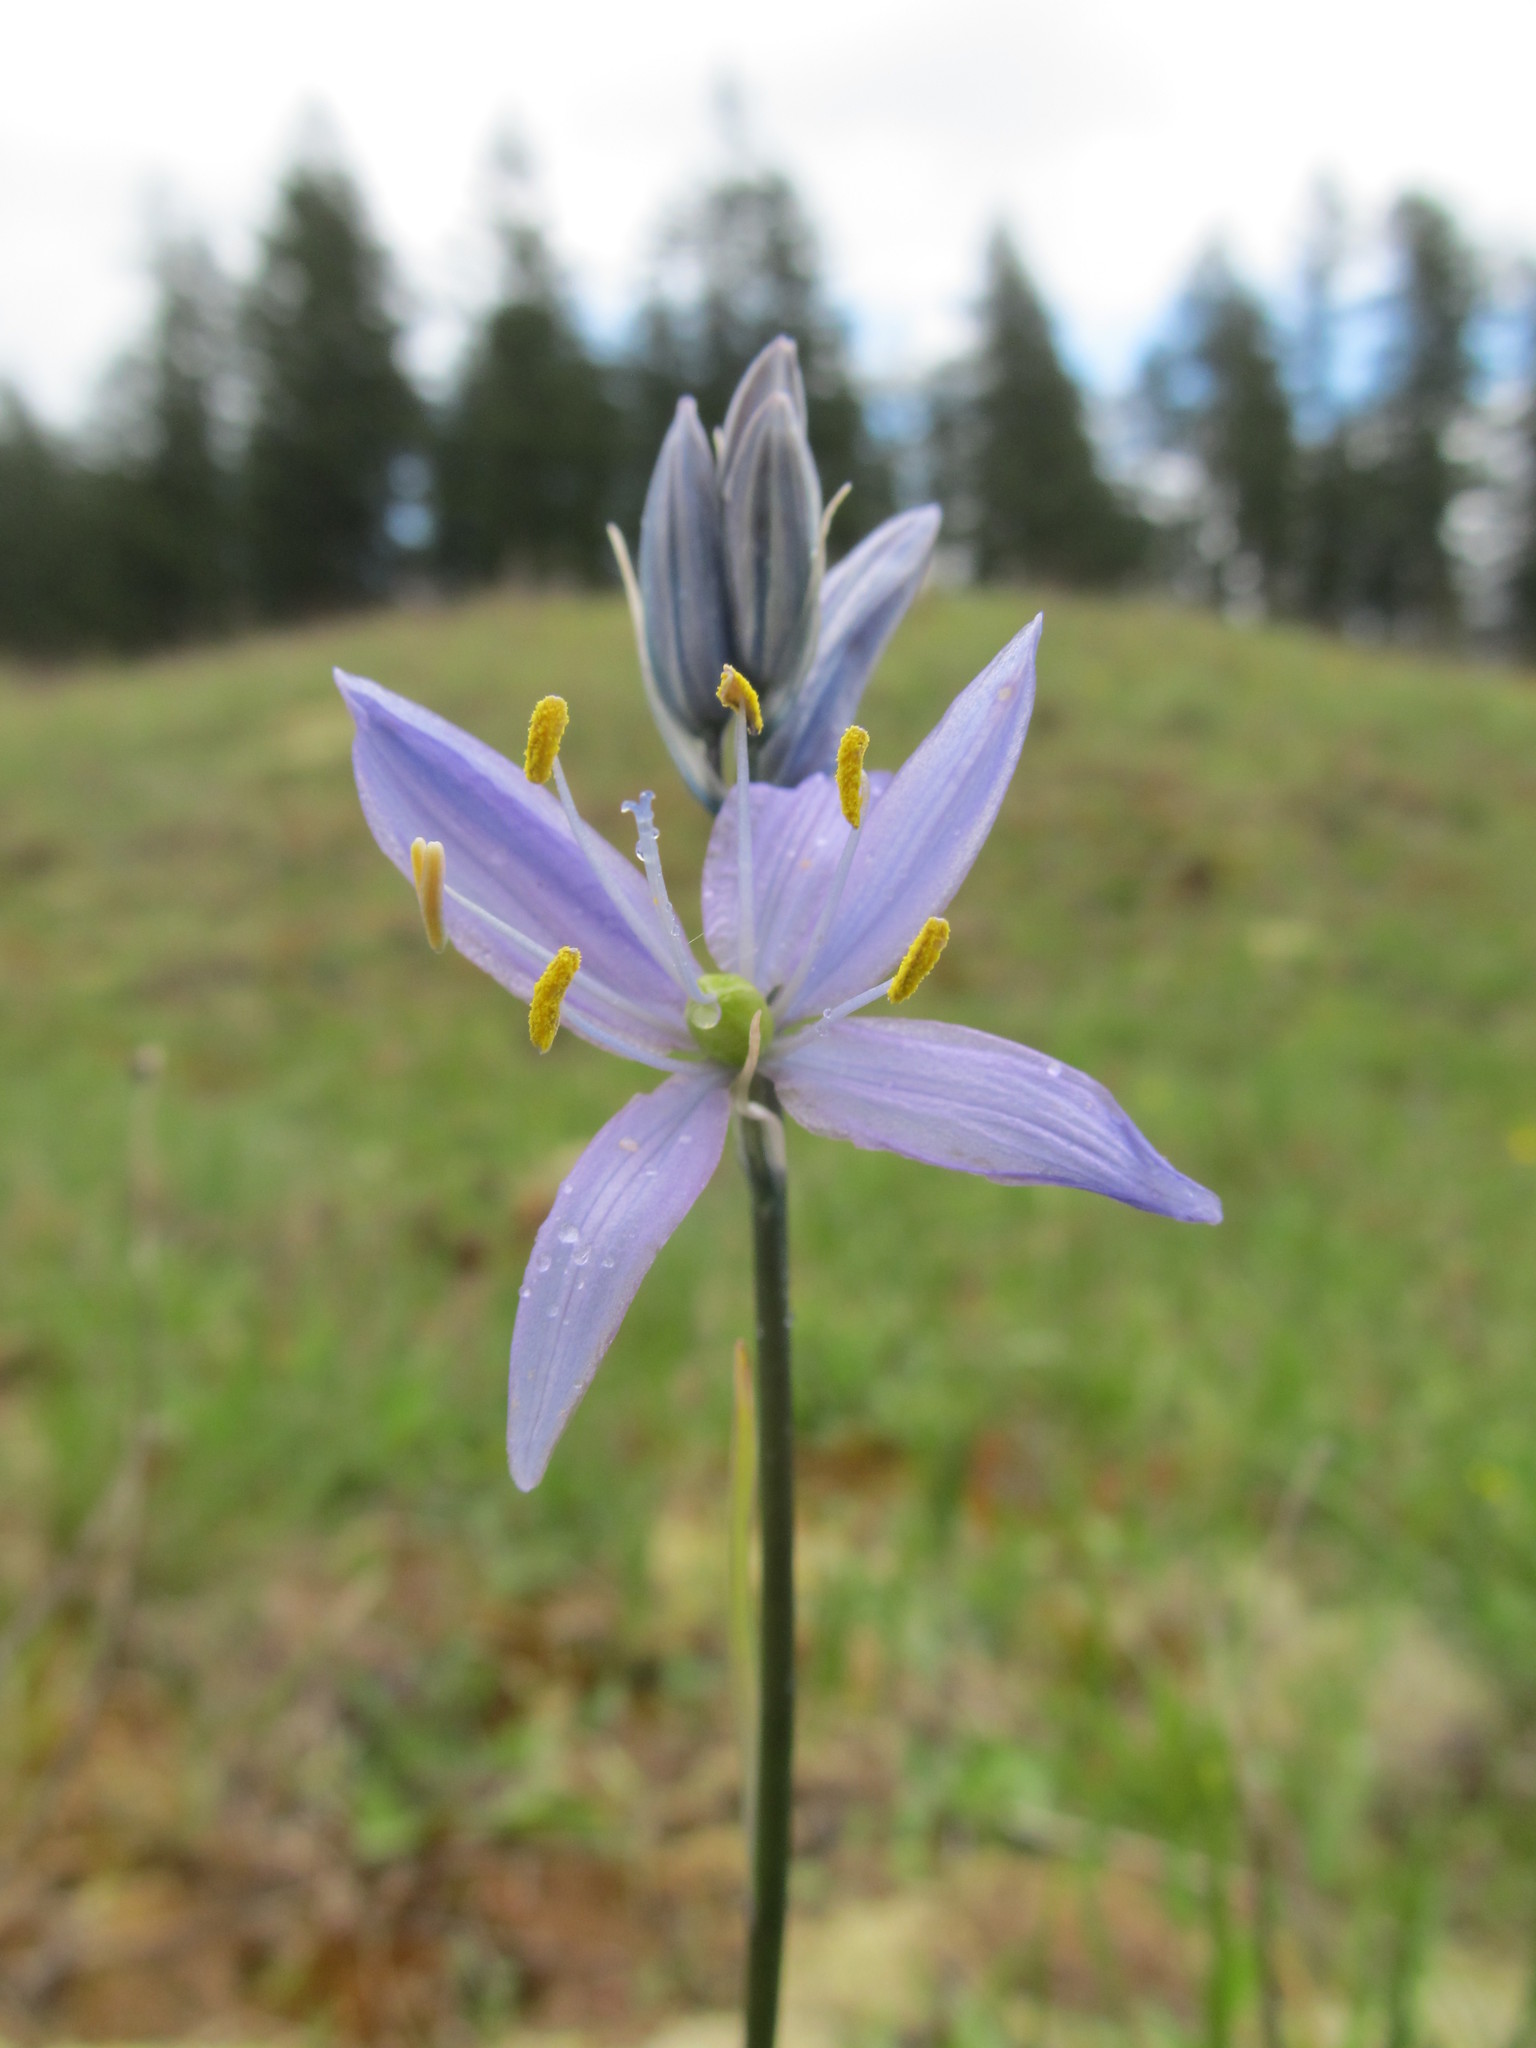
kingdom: Plantae
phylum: Tracheophyta
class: Liliopsida
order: Asparagales
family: Asparagaceae
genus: Camassia
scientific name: Camassia quamash
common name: Common camas
